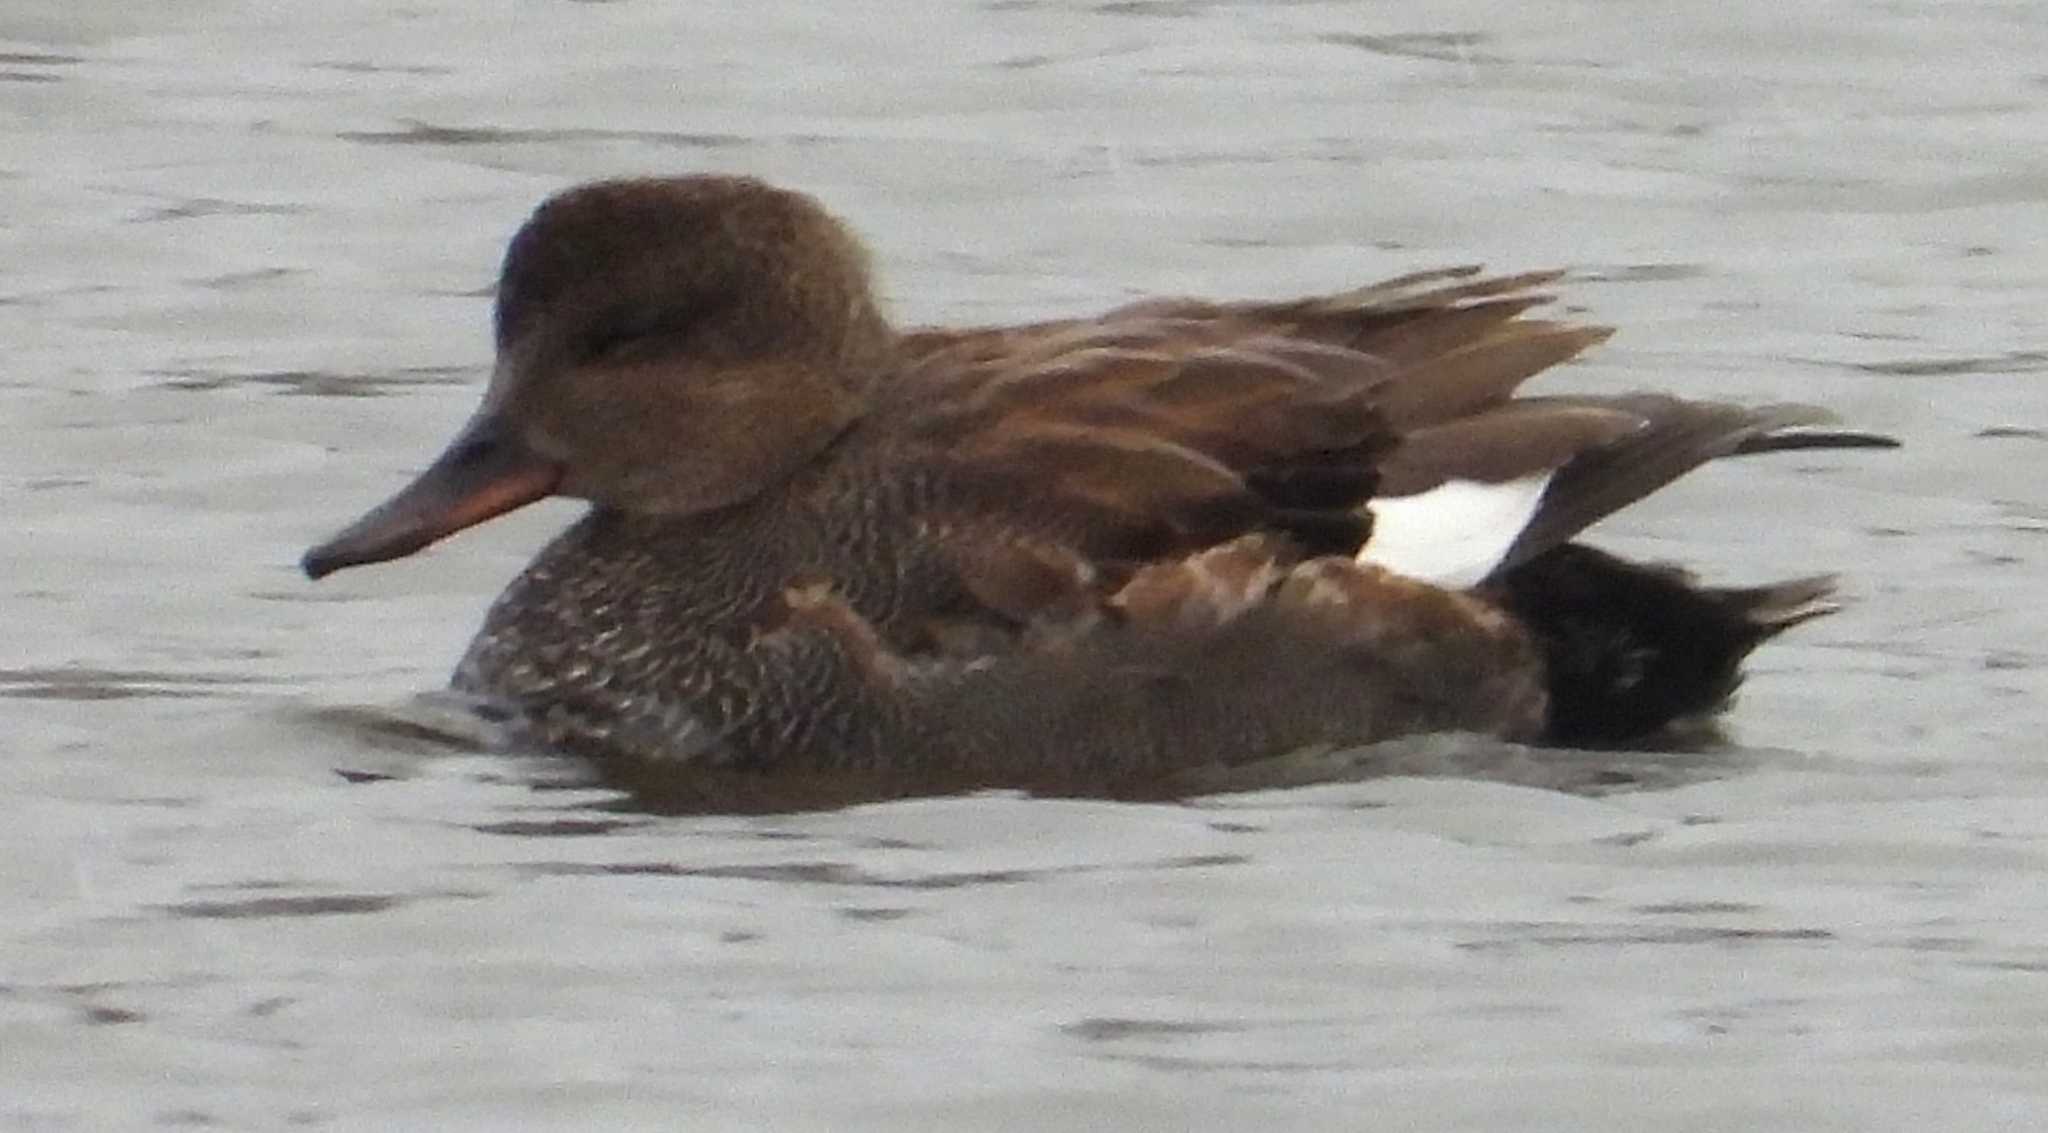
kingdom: Animalia
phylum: Chordata
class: Aves
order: Anseriformes
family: Anatidae
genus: Mareca
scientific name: Mareca strepera
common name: Gadwall
